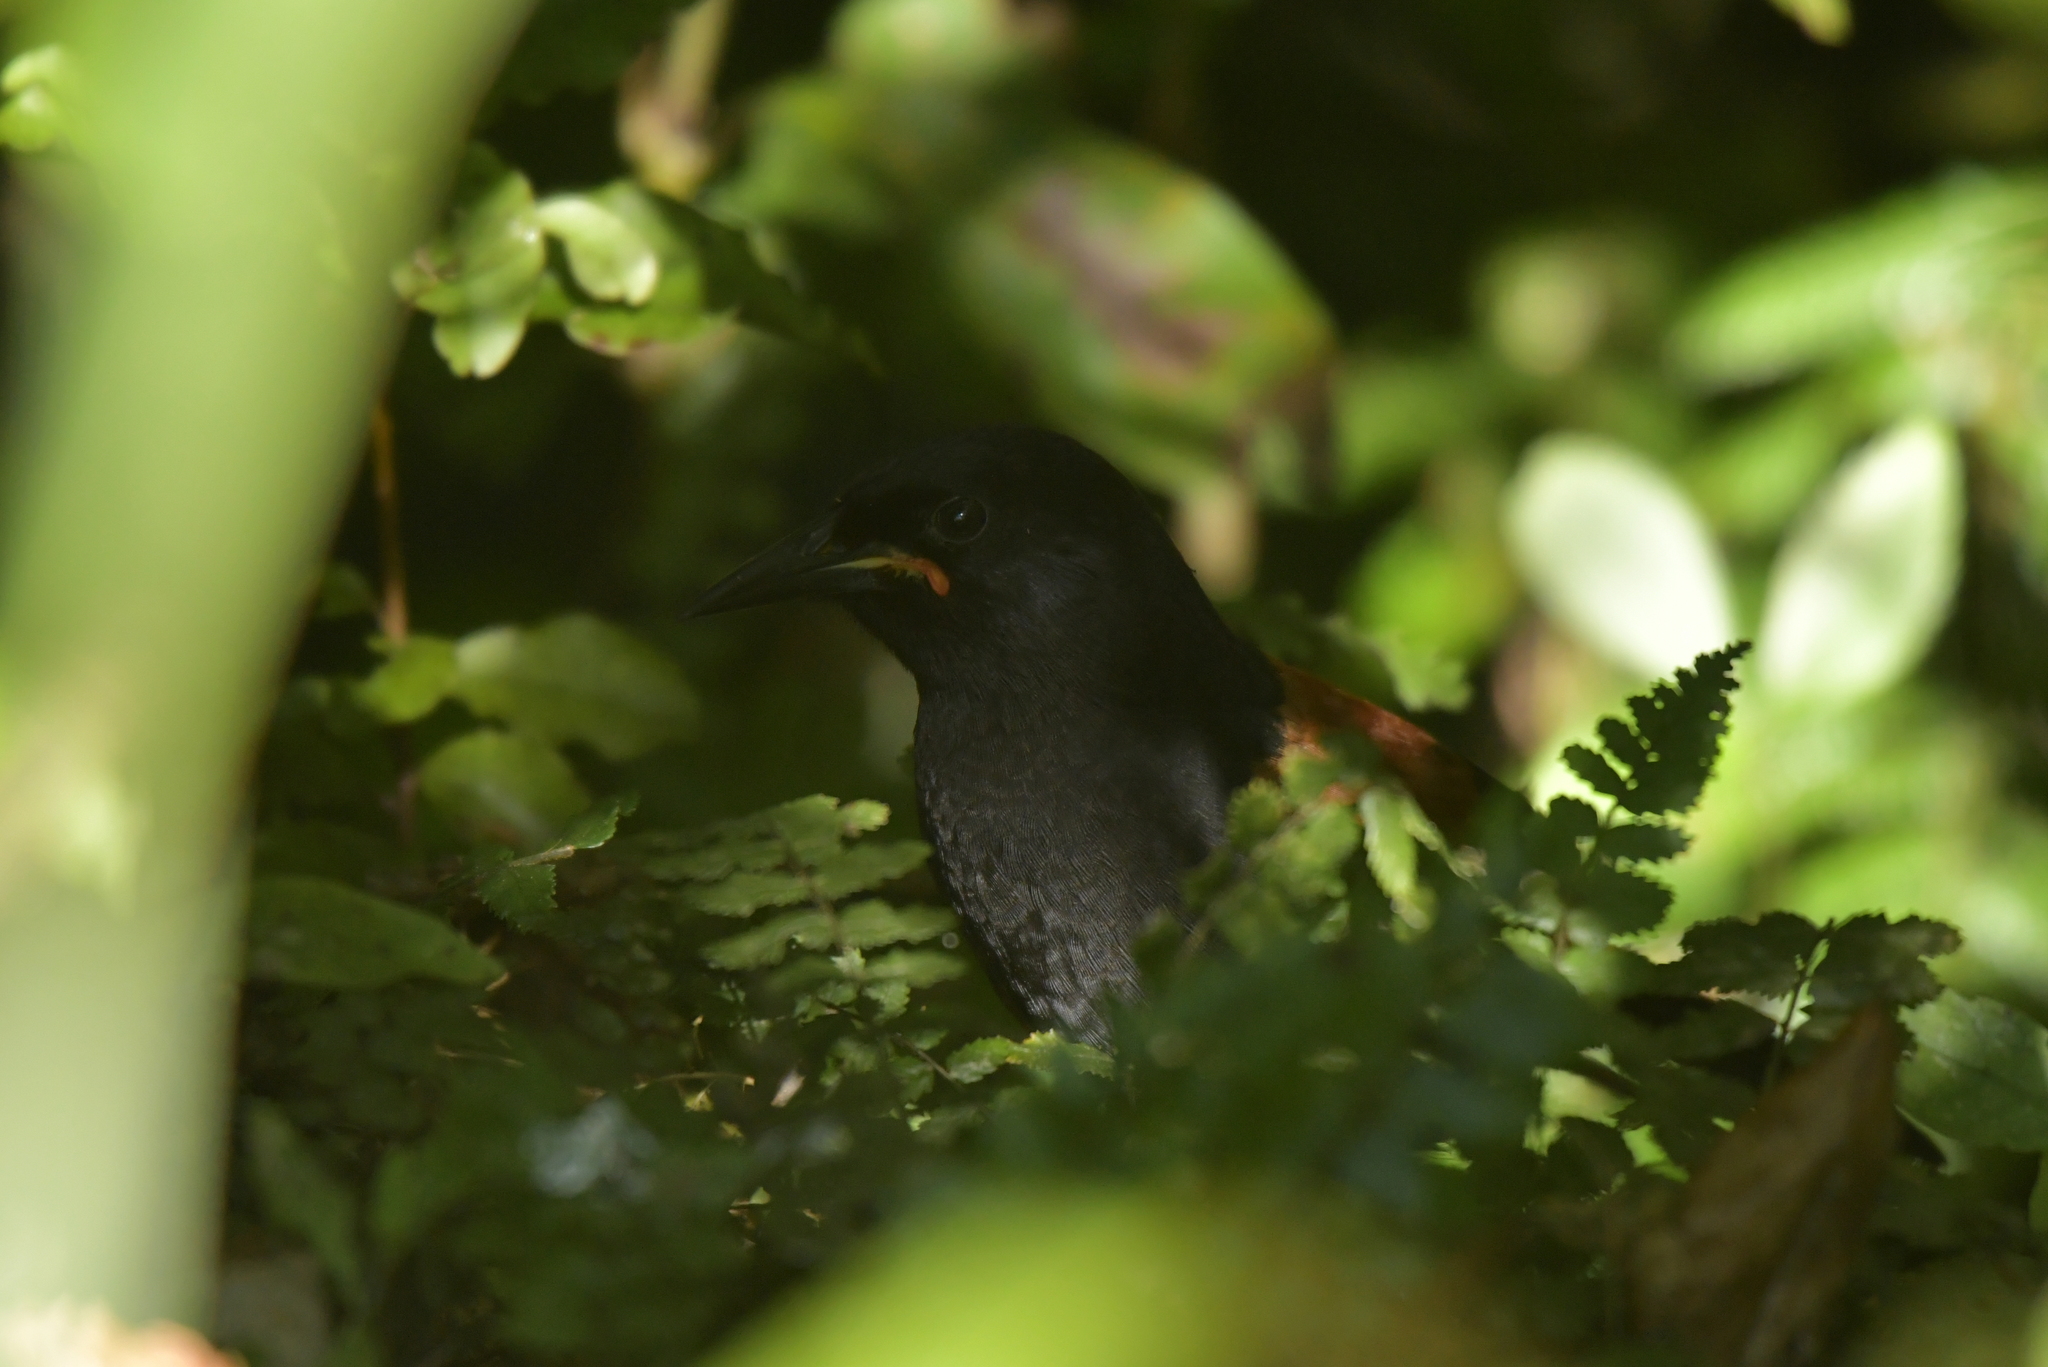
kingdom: Animalia
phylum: Chordata
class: Aves
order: Passeriformes
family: Callaeatidae
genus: Philesturnus
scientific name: Philesturnus carunculatus
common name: South island saddleback
